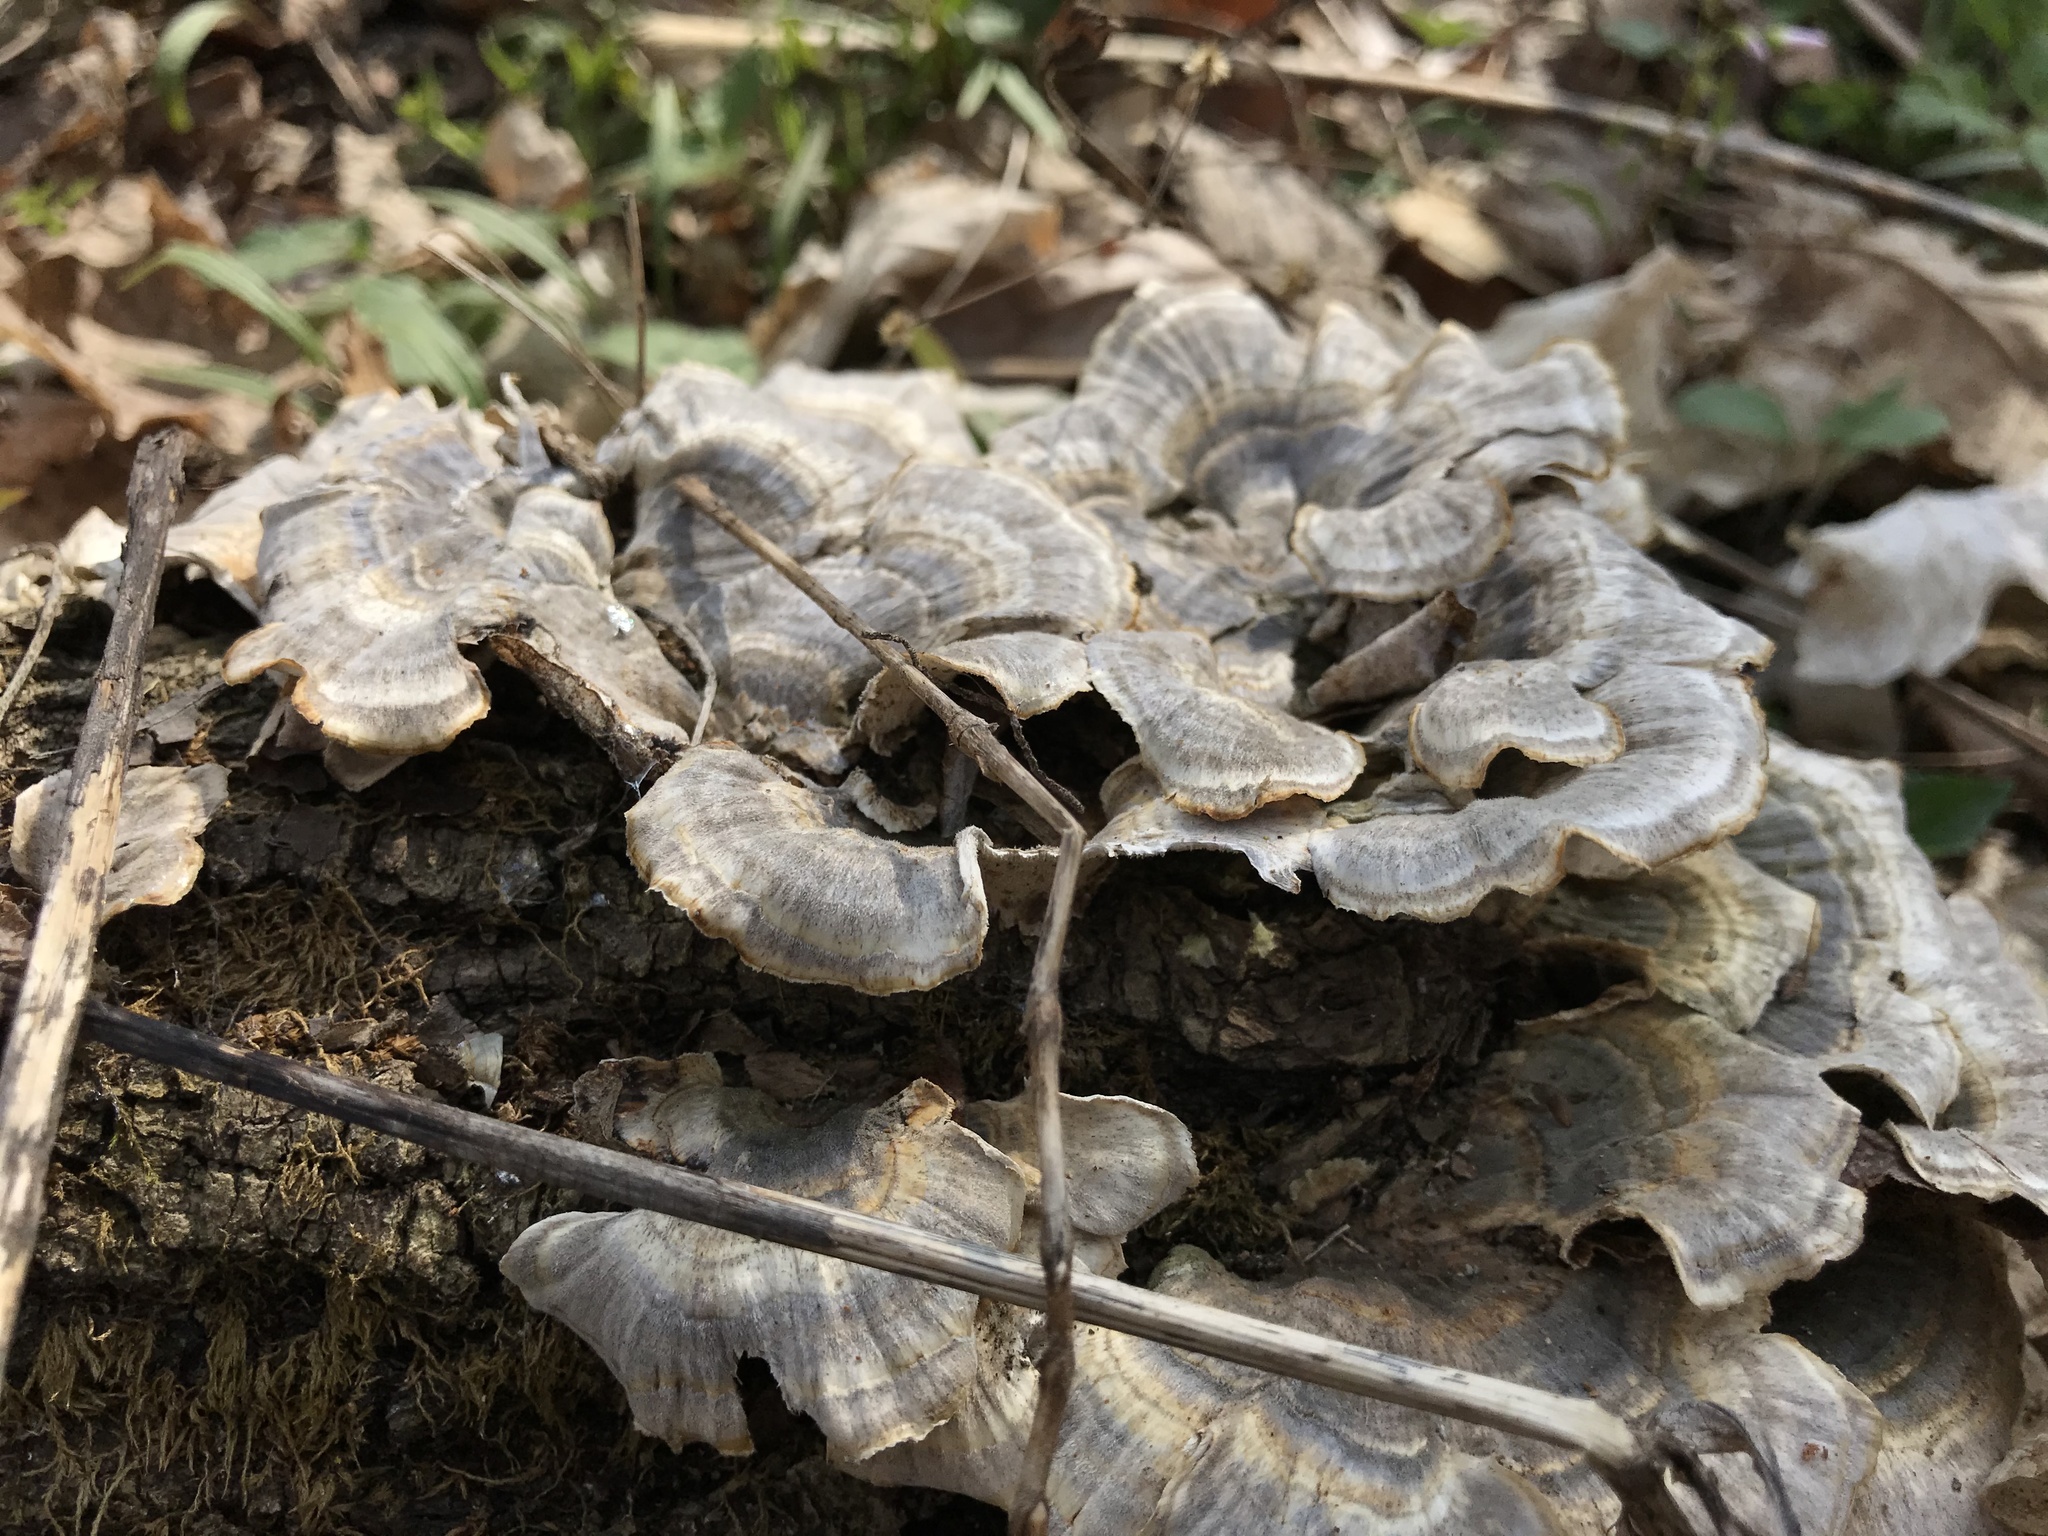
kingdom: Fungi
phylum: Basidiomycota
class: Agaricomycetes
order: Polyporales
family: Polyporaceae
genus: Trametes
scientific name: Trametes versicolor
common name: Turkeytail
